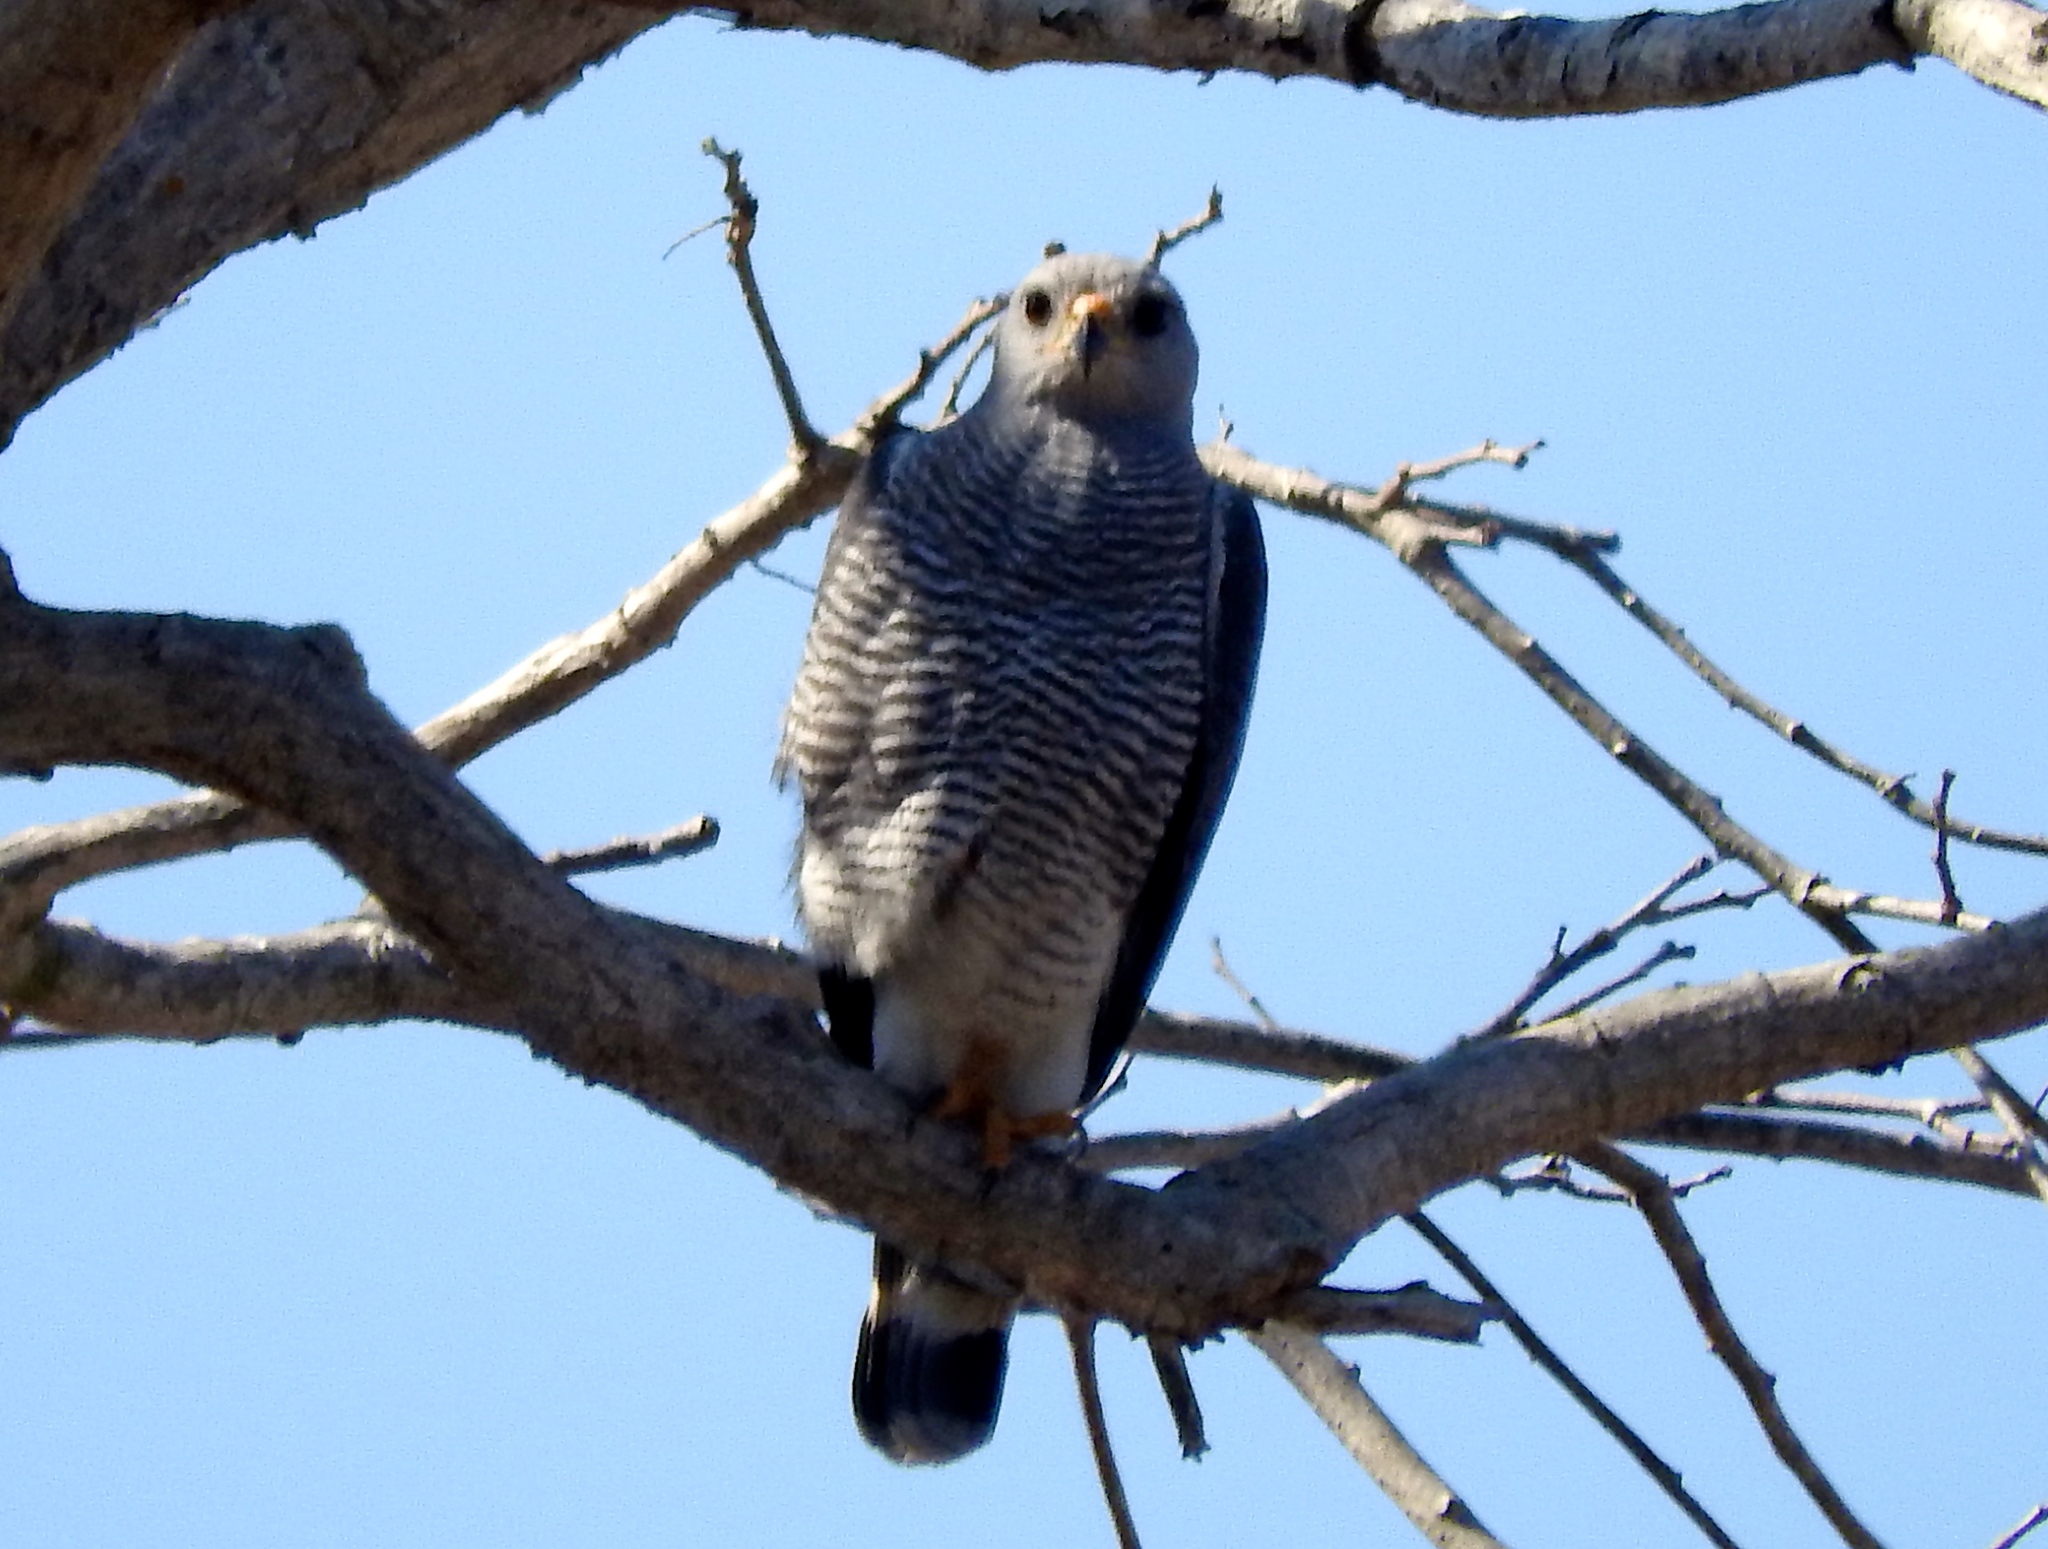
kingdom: Animalia
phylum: Chordata
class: Aves
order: Accipitriformes
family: Accipitridae
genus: Buteo
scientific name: Buteo nitidus
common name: Grey-lined hawk
